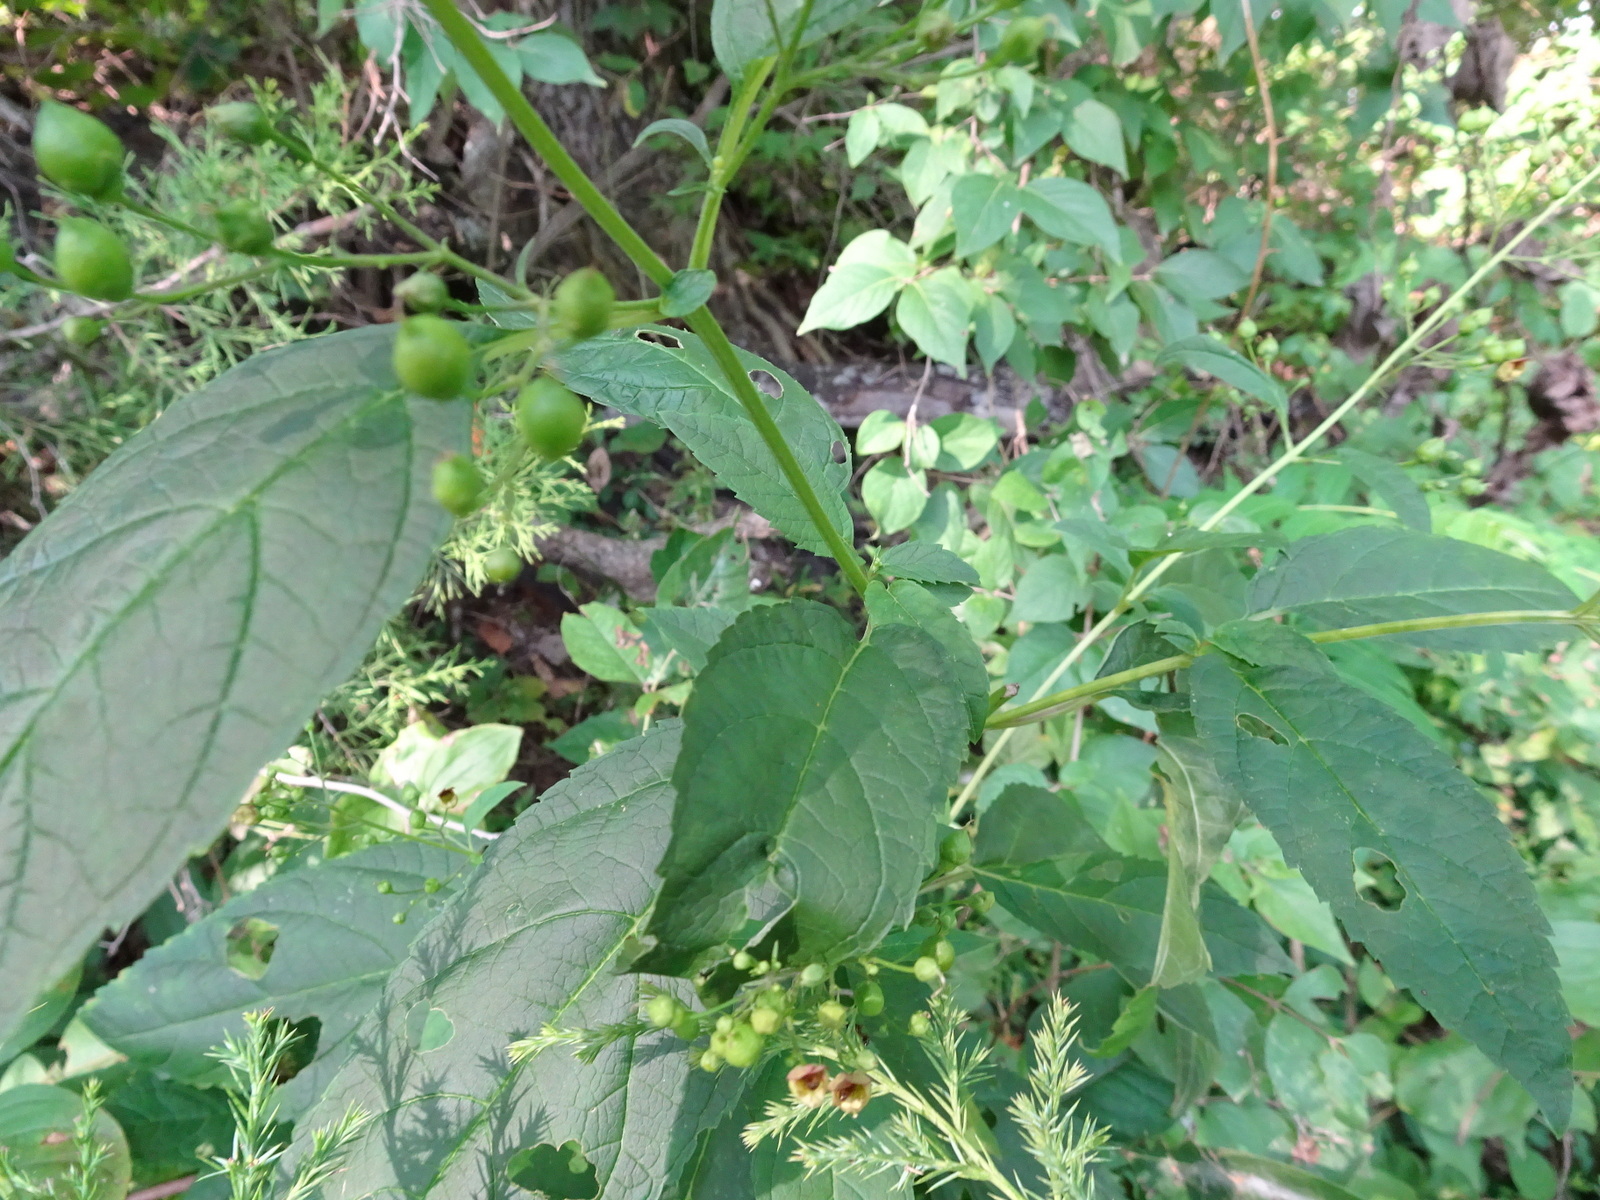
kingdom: Plantae
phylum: Tracheophyta
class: Magnoliopsida
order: Lamiales
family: Scrophulariaceae
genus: Scrophularia
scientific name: Scrophularia marilandica
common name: Eastern figwort
